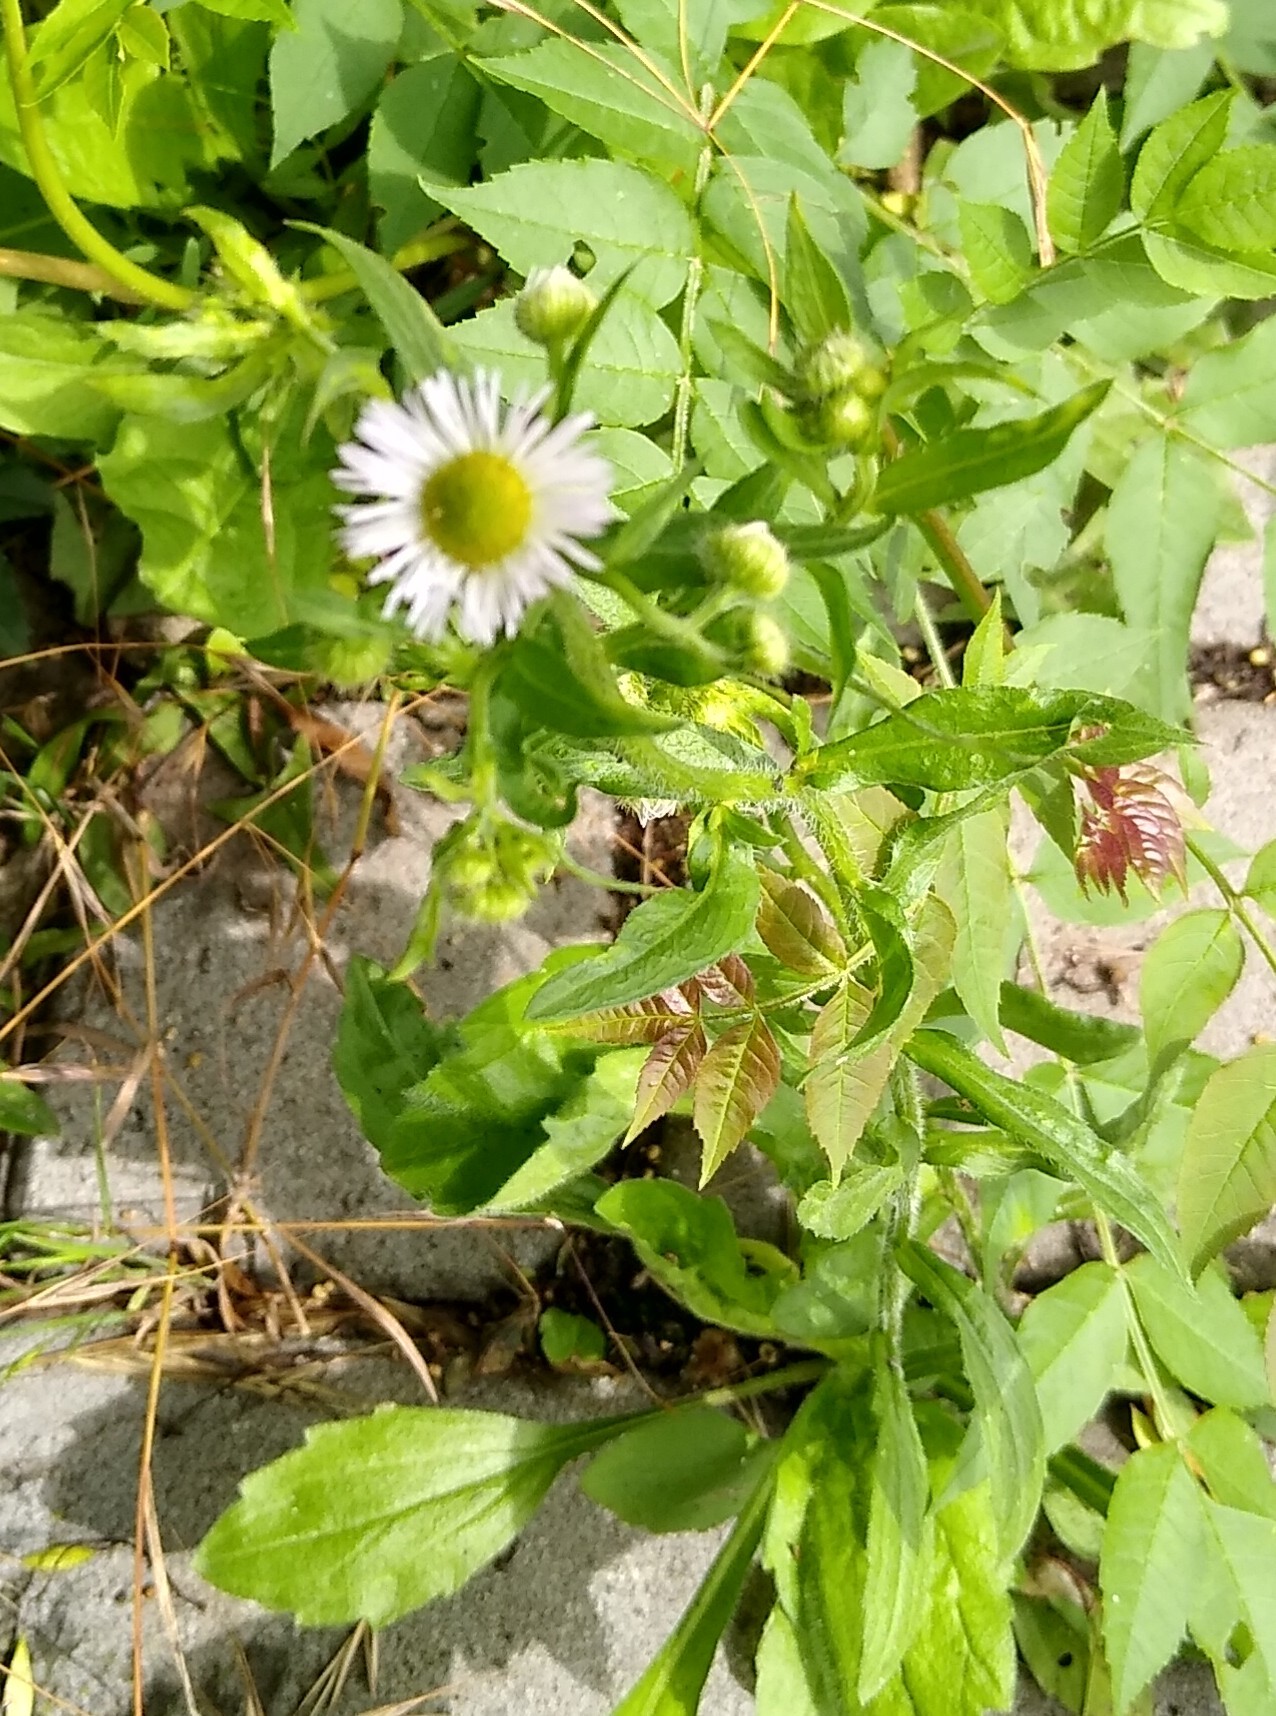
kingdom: Plantae
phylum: Tracheophyta
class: Magnoliopsida
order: Asterales
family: Asteraceae
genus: Erigeron
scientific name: Erigeron annuus
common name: Tall fleabane
